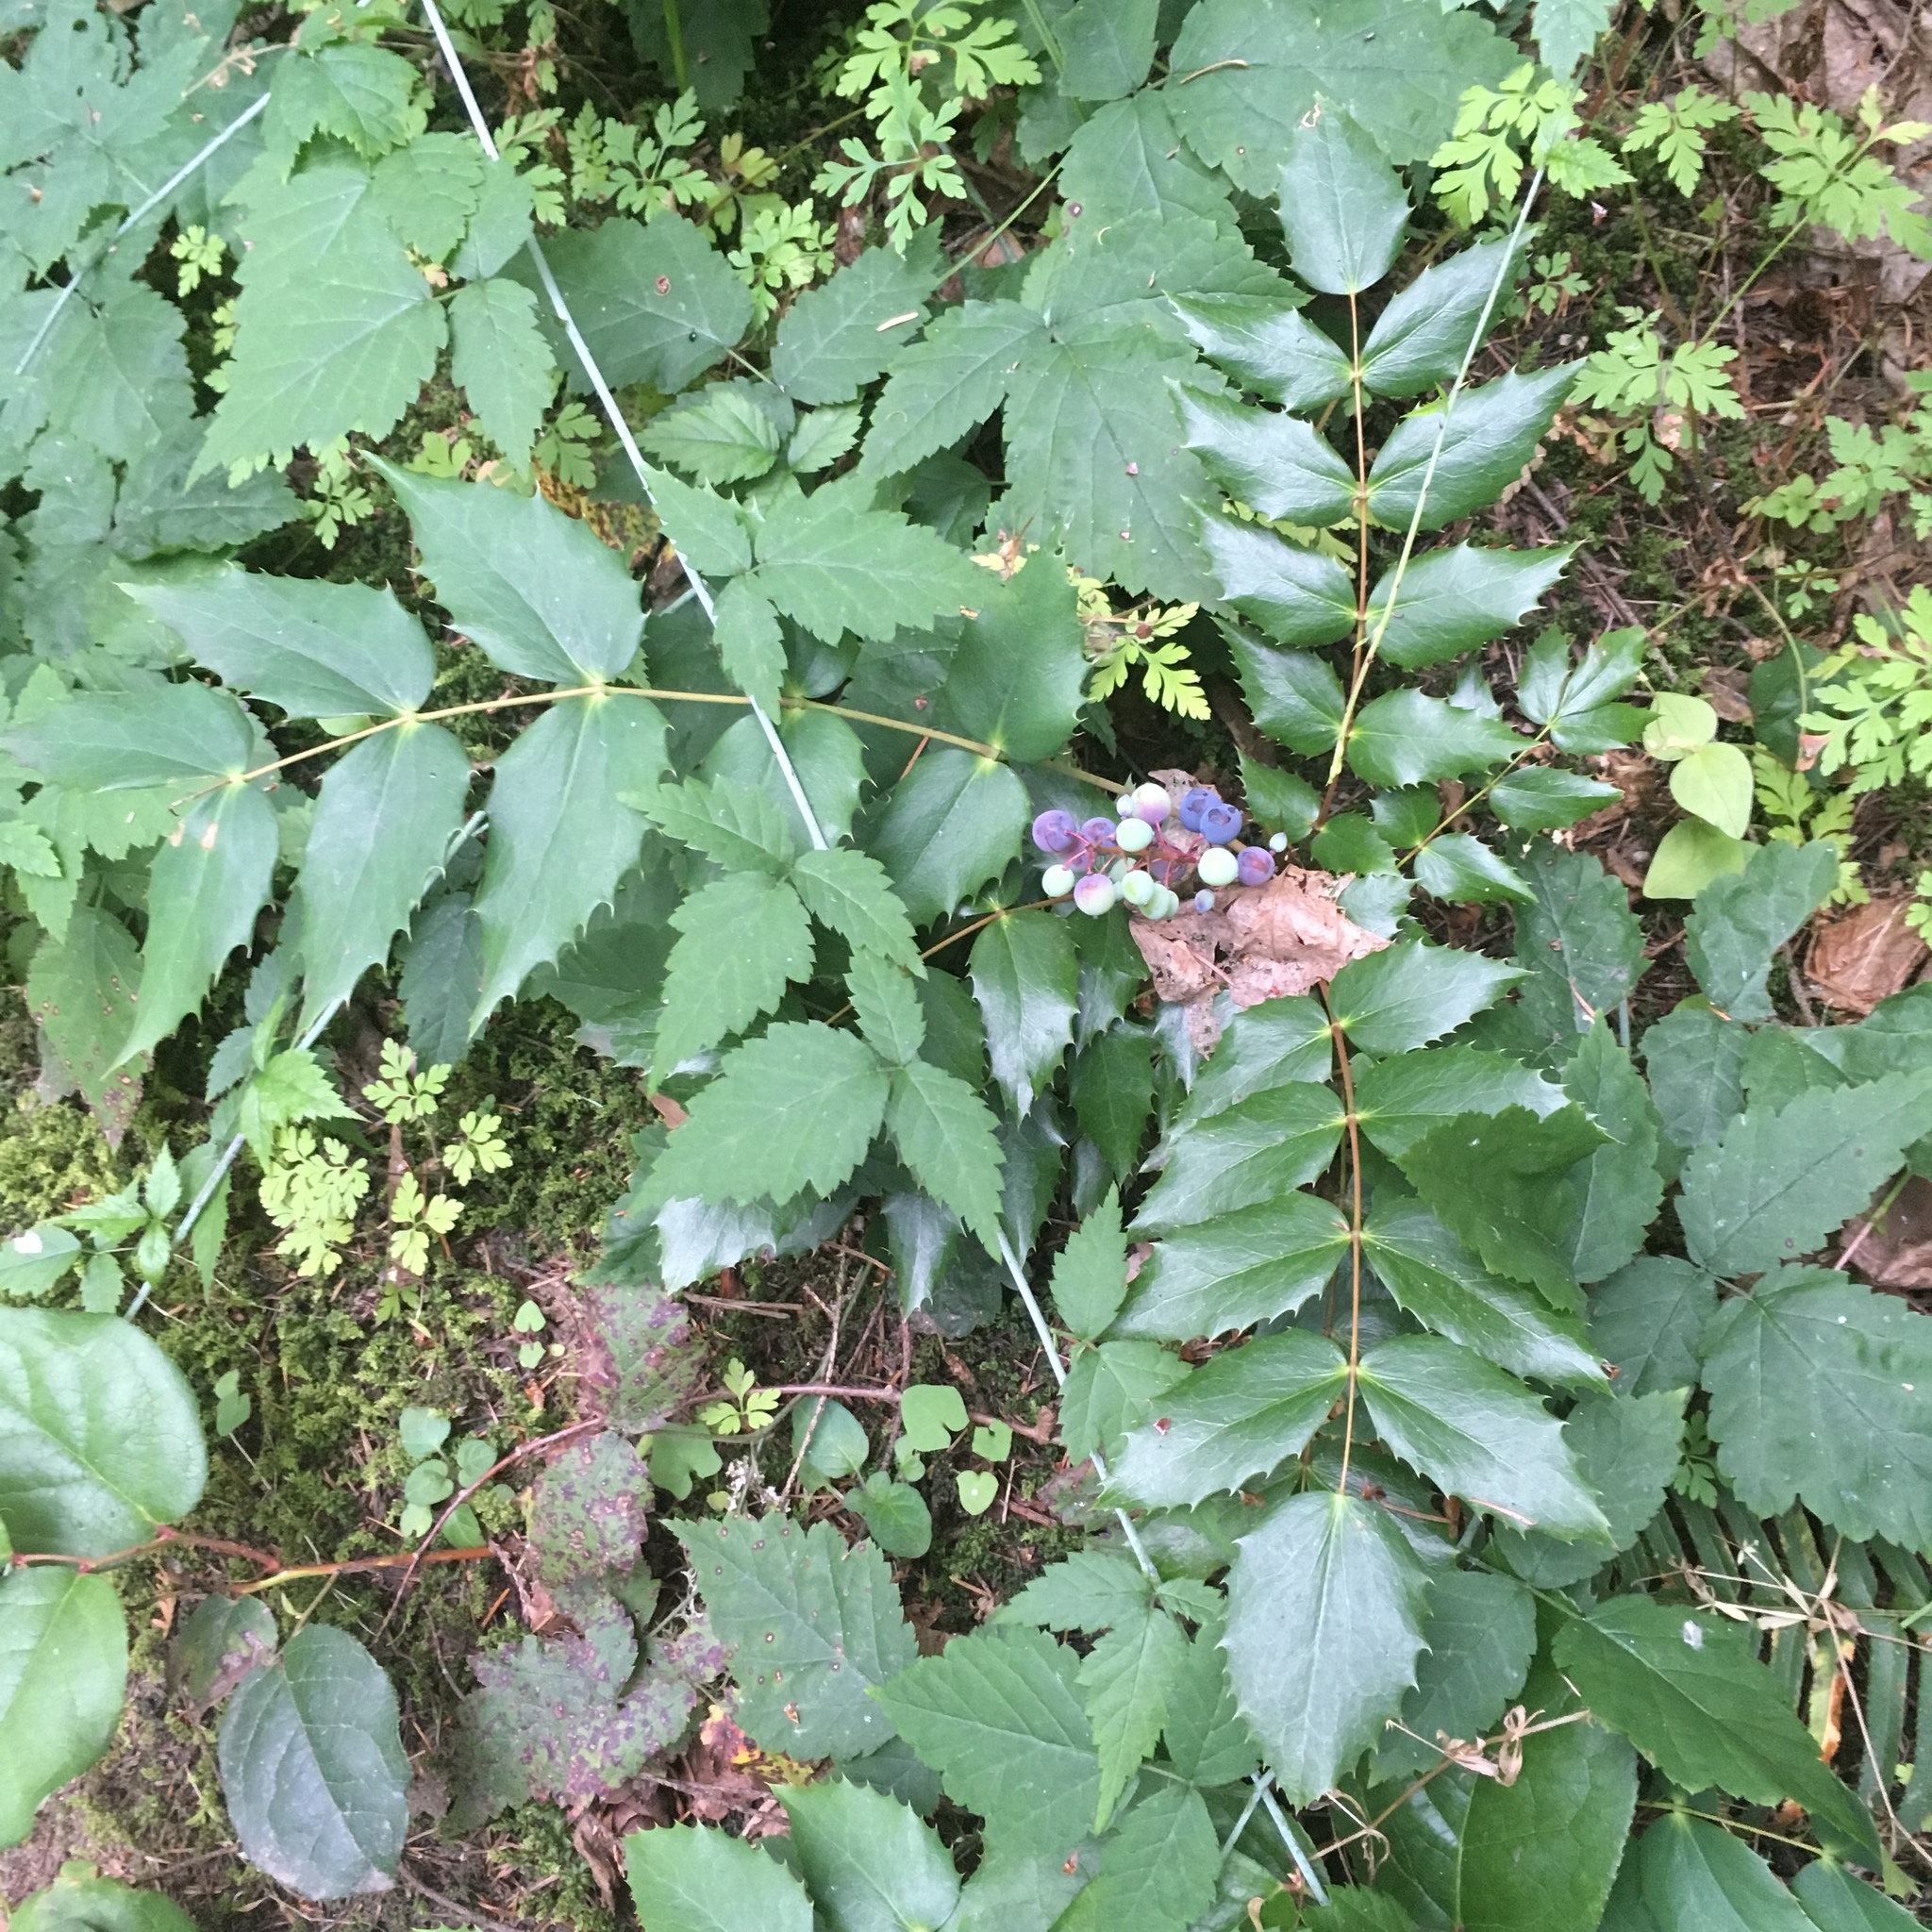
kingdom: Plantae
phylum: Tracheophyta
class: Magnoliopsida
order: Ranunculales
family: Berberidaceae
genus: Mahonia
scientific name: Mahonia nervosa
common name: Cascade oregon-grape
